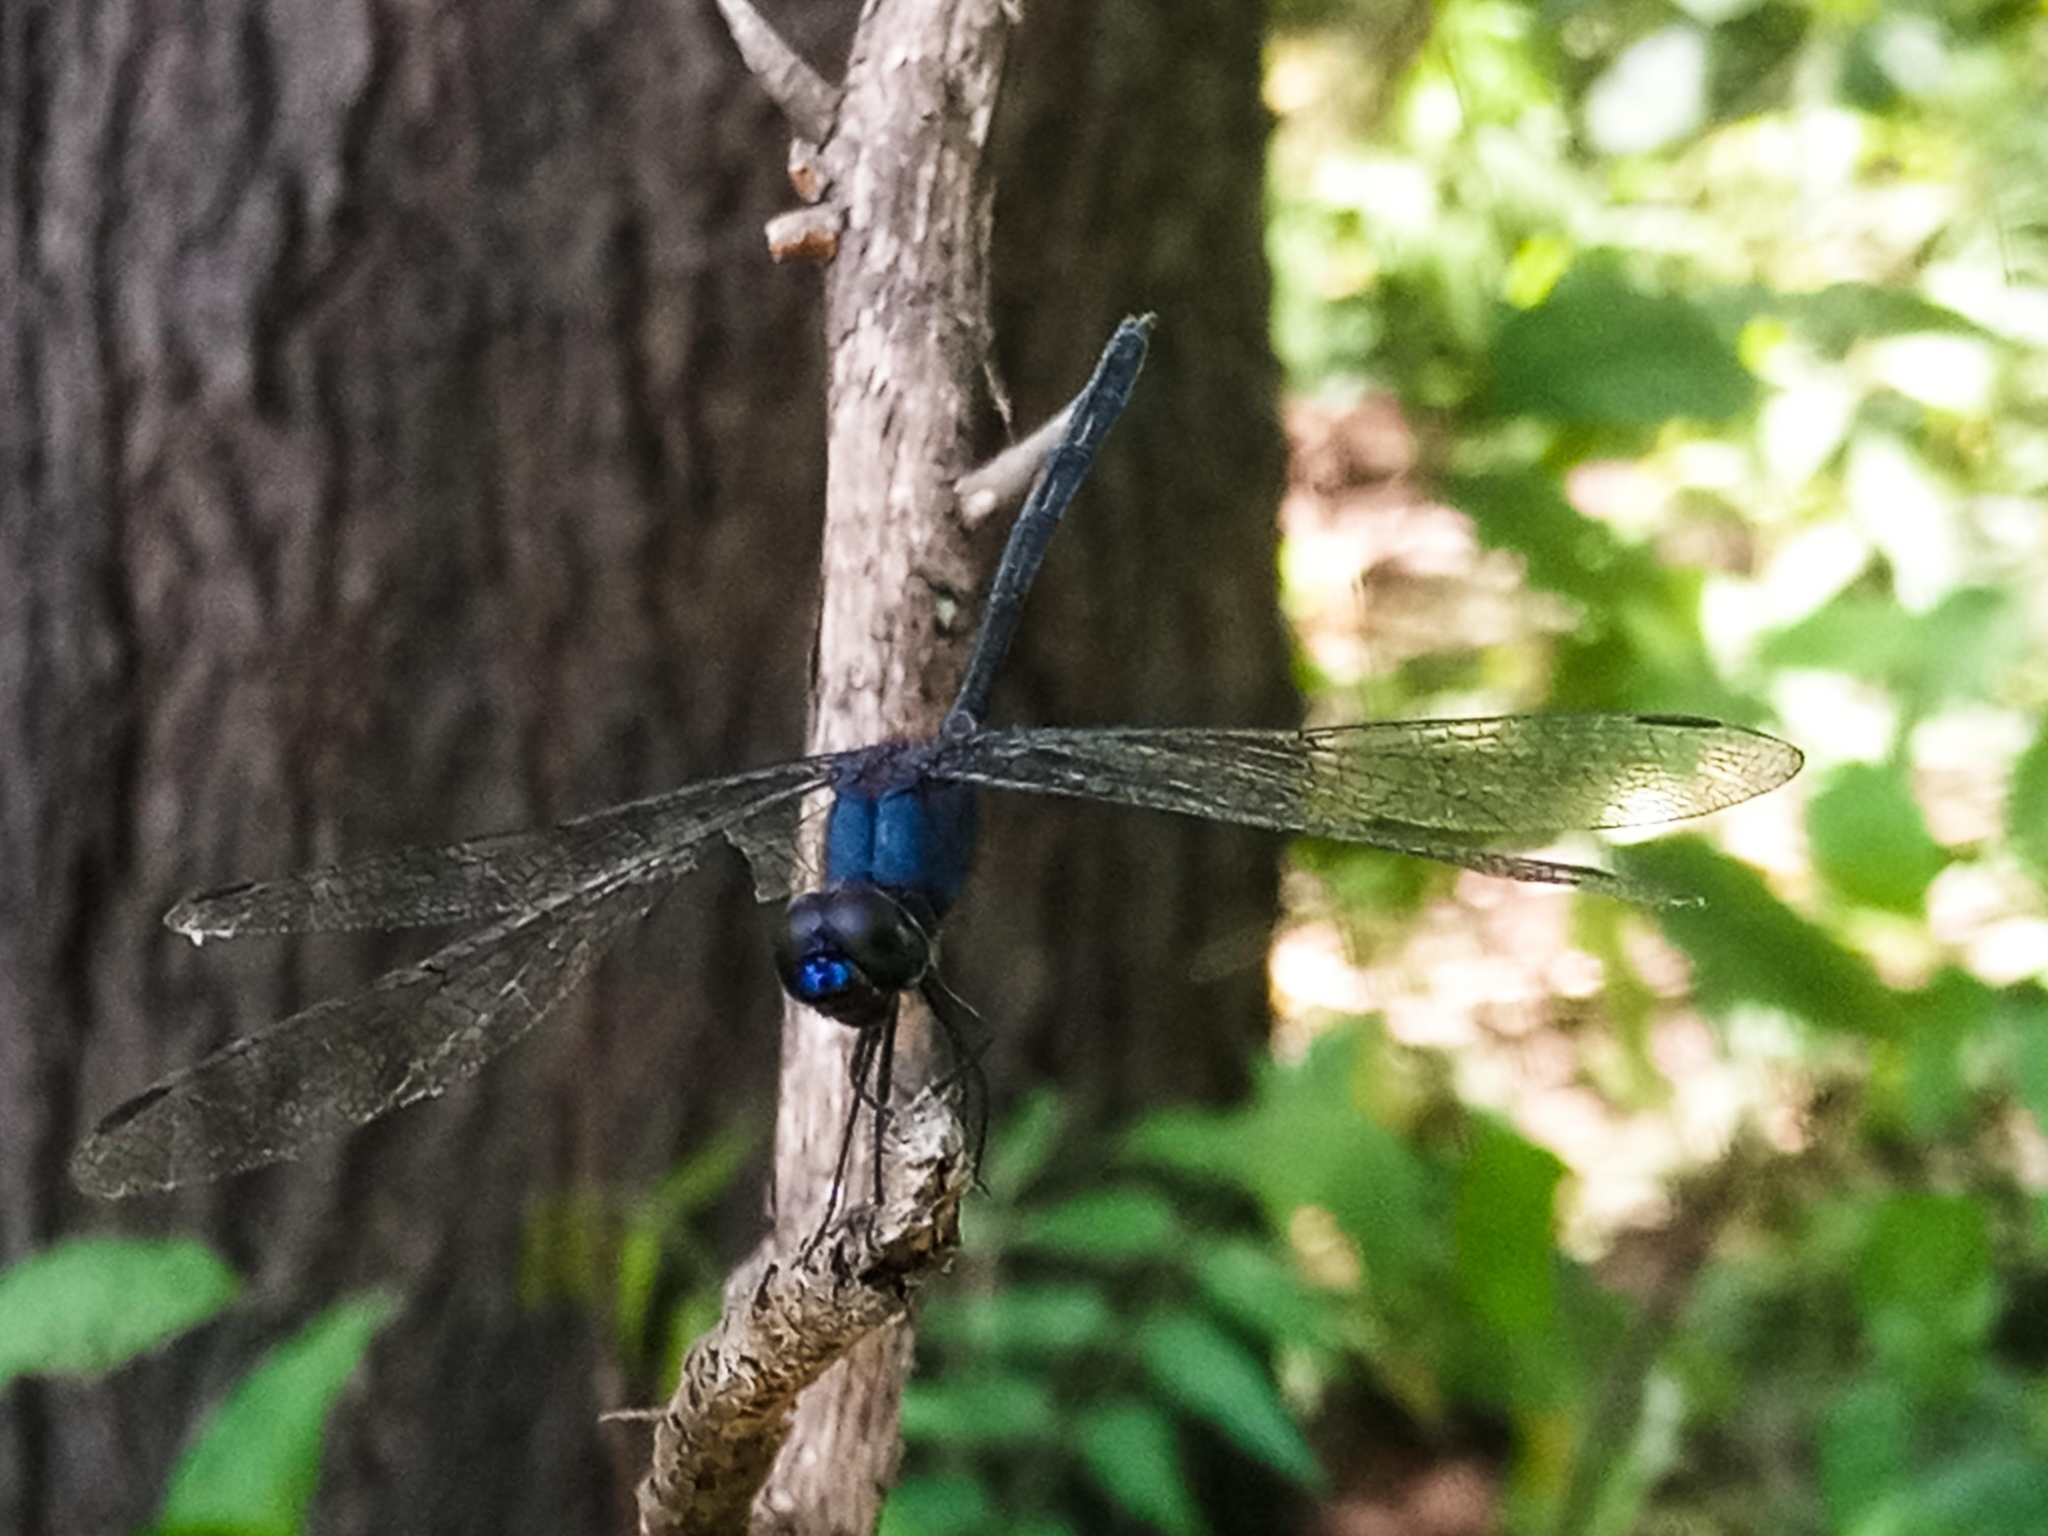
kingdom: Animalia
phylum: Arthropoda
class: Insecta
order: Odonata
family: Libellulidae
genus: Trithemis
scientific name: Trithemis aconita
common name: Halfshade dropwing
